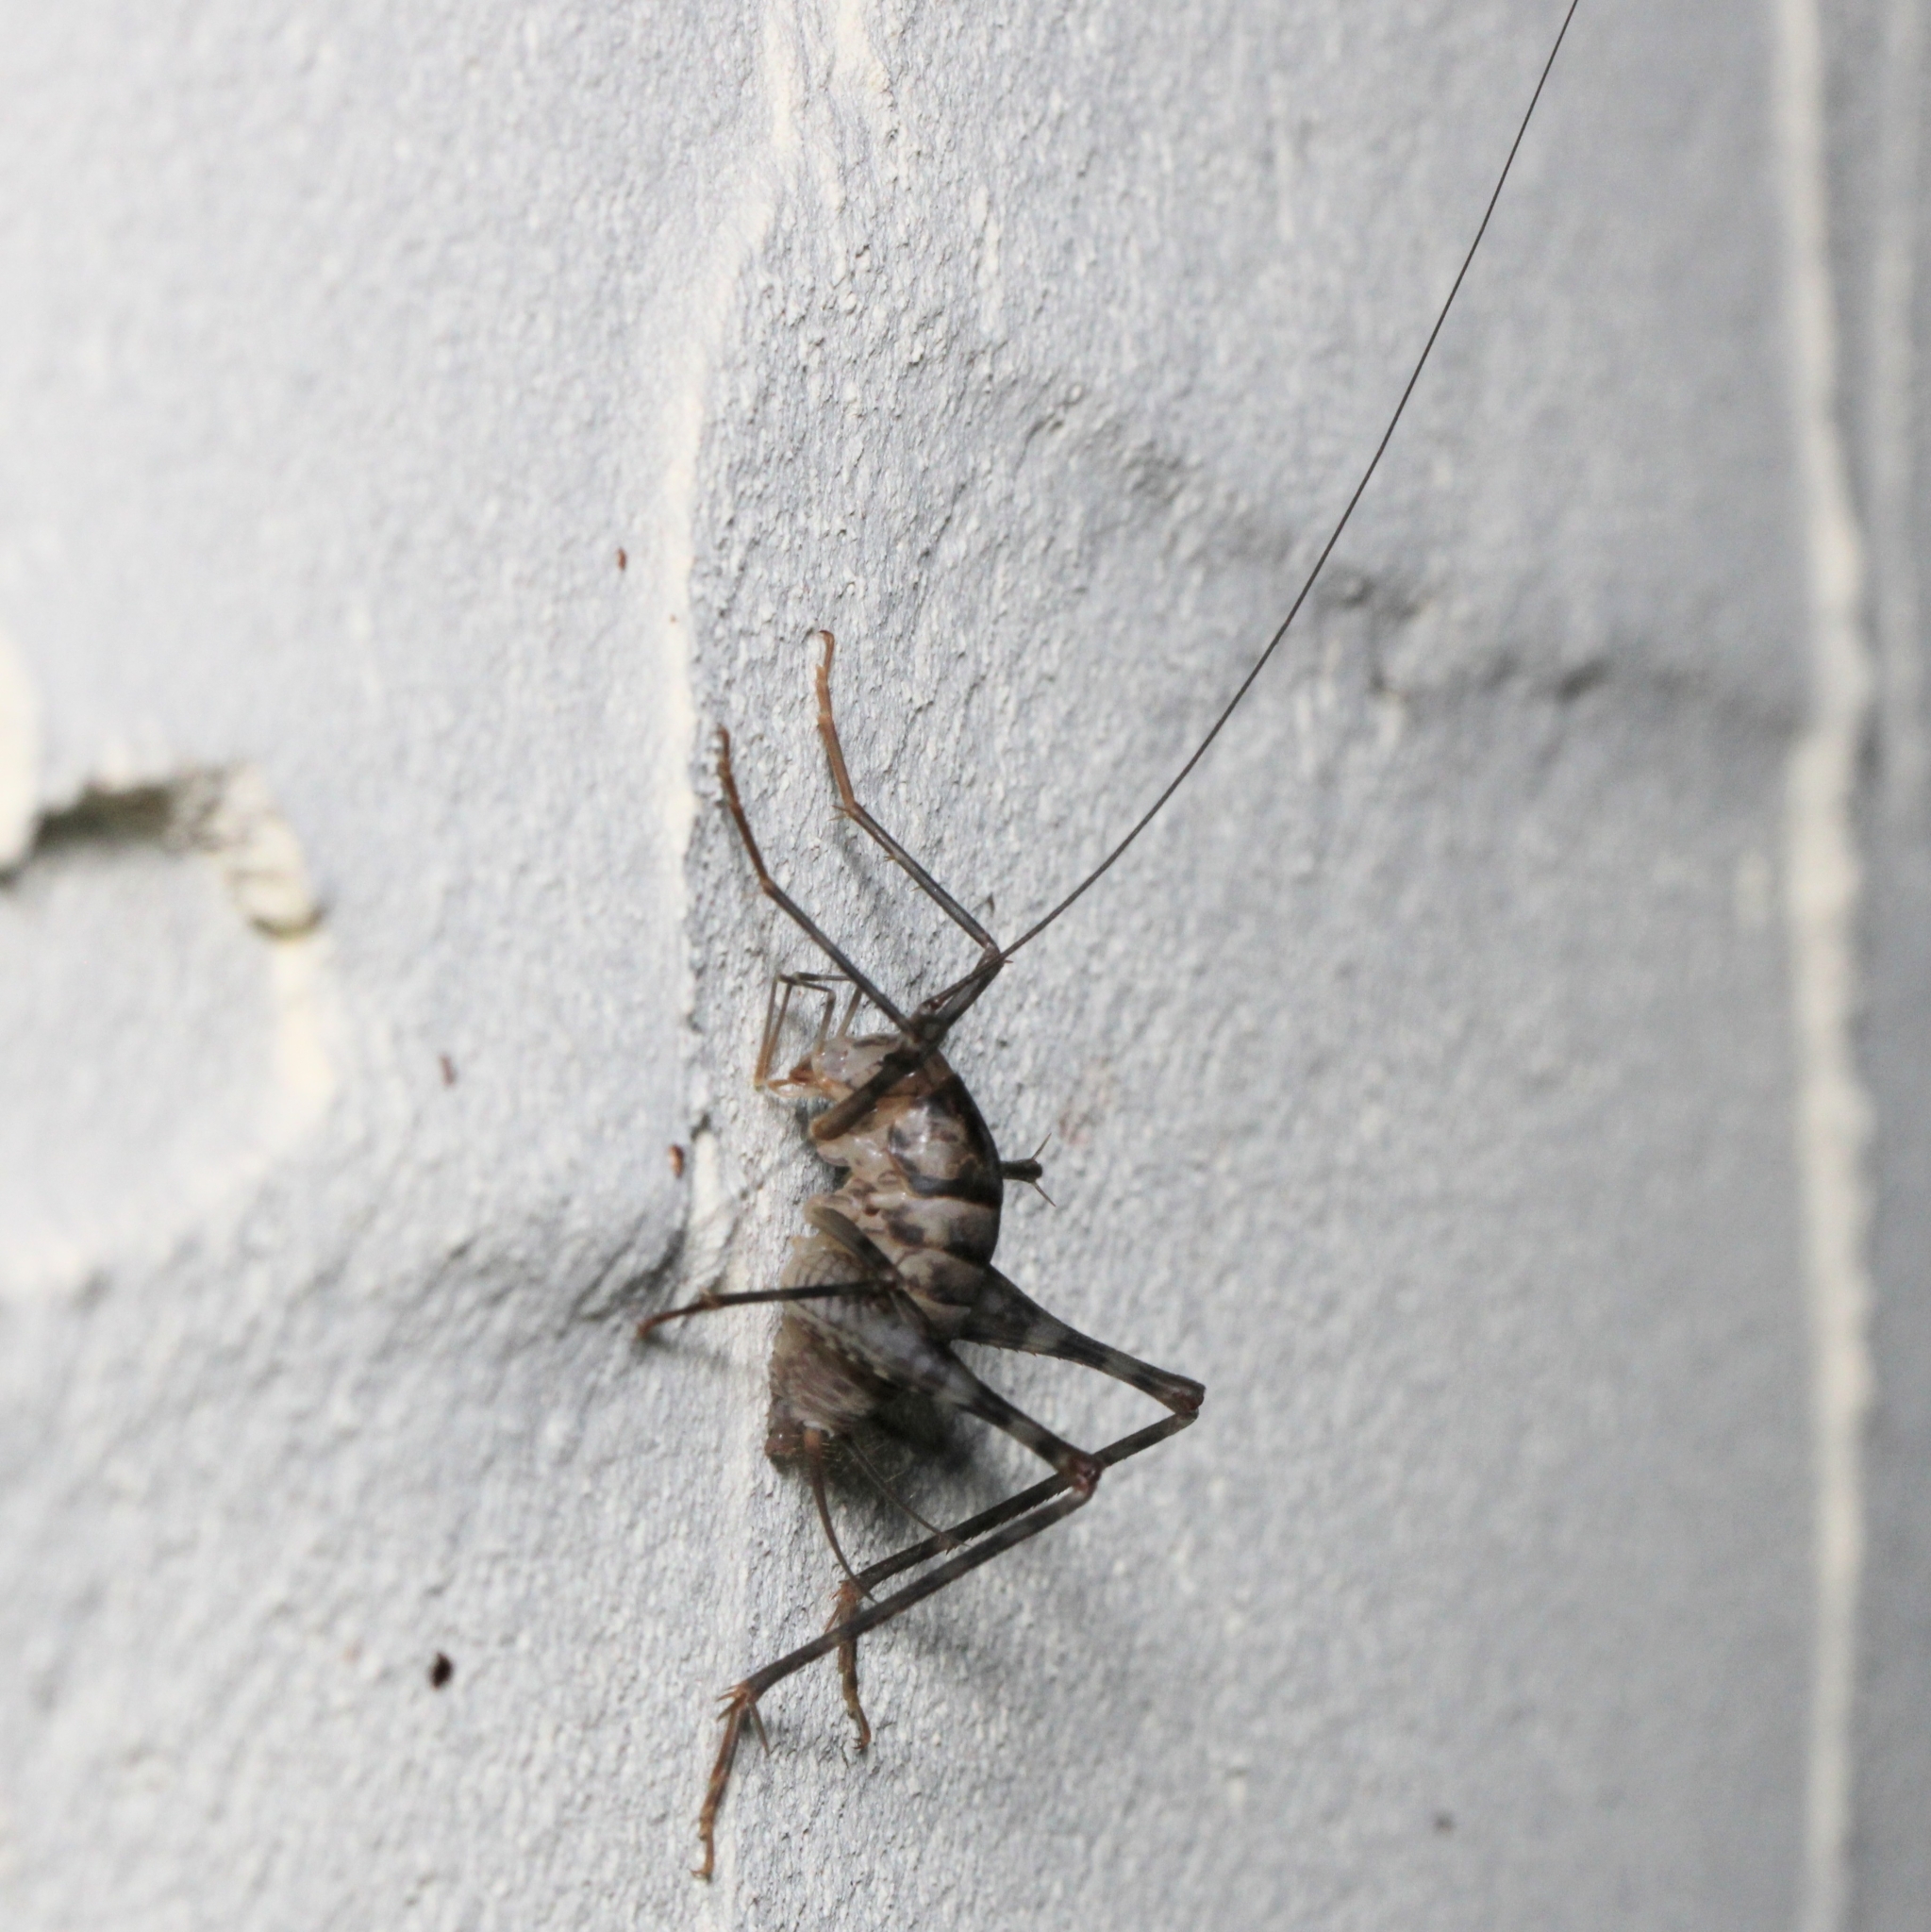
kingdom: Animalia
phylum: Arthropoda
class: Insecta
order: Orthoptera
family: Rhaphidophoridae
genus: Tachycines
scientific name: Tachycines asynamorus
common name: Greenhouse camel cricket
